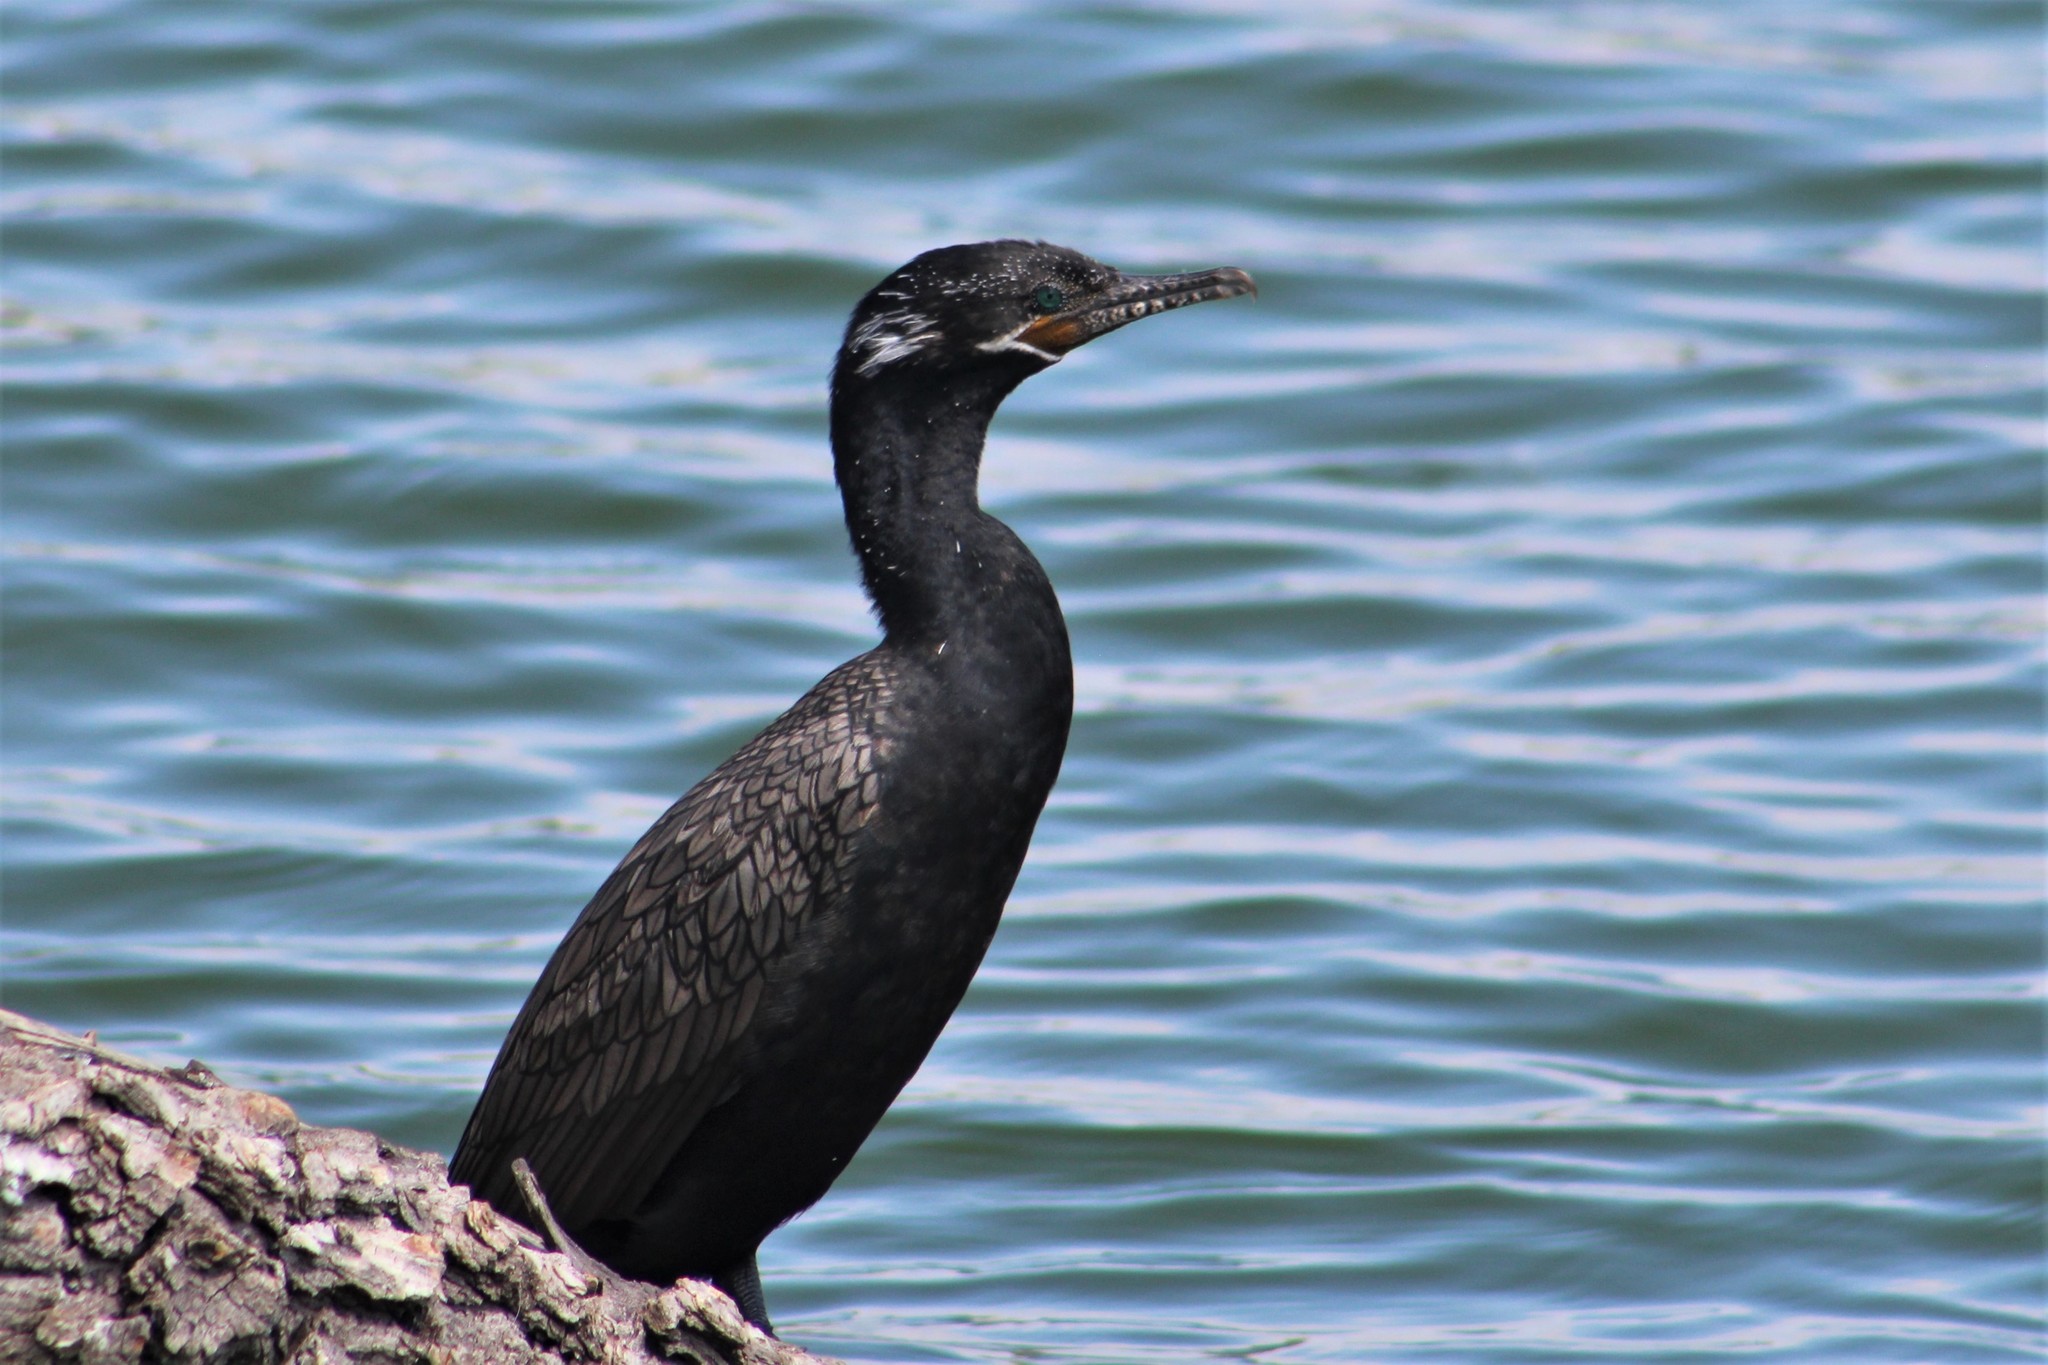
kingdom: Animalia
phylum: Chordata
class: Aves
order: Suliformes
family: Phalacrocoracidae
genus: Phalacrocorax
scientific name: Phalacrocorax brasilianus
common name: Neotropic cormorant
